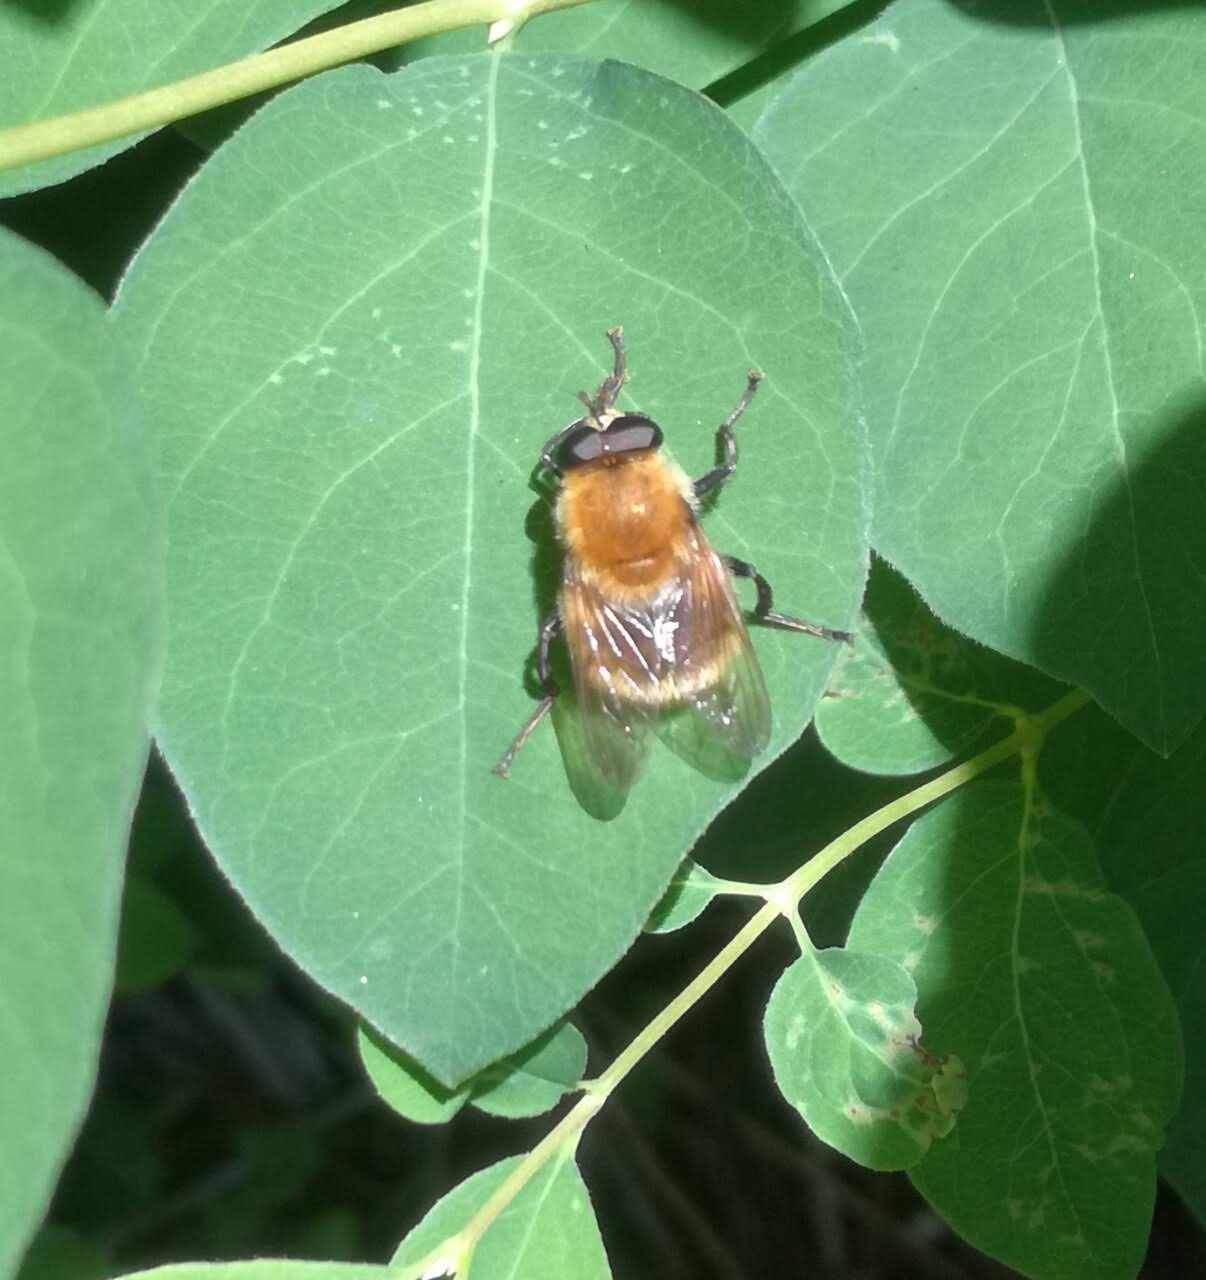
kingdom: Animalia
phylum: Arthropoda
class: Insecta
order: Diptera
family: Syrphidae
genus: Criorhina
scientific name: Criorhina berberina
